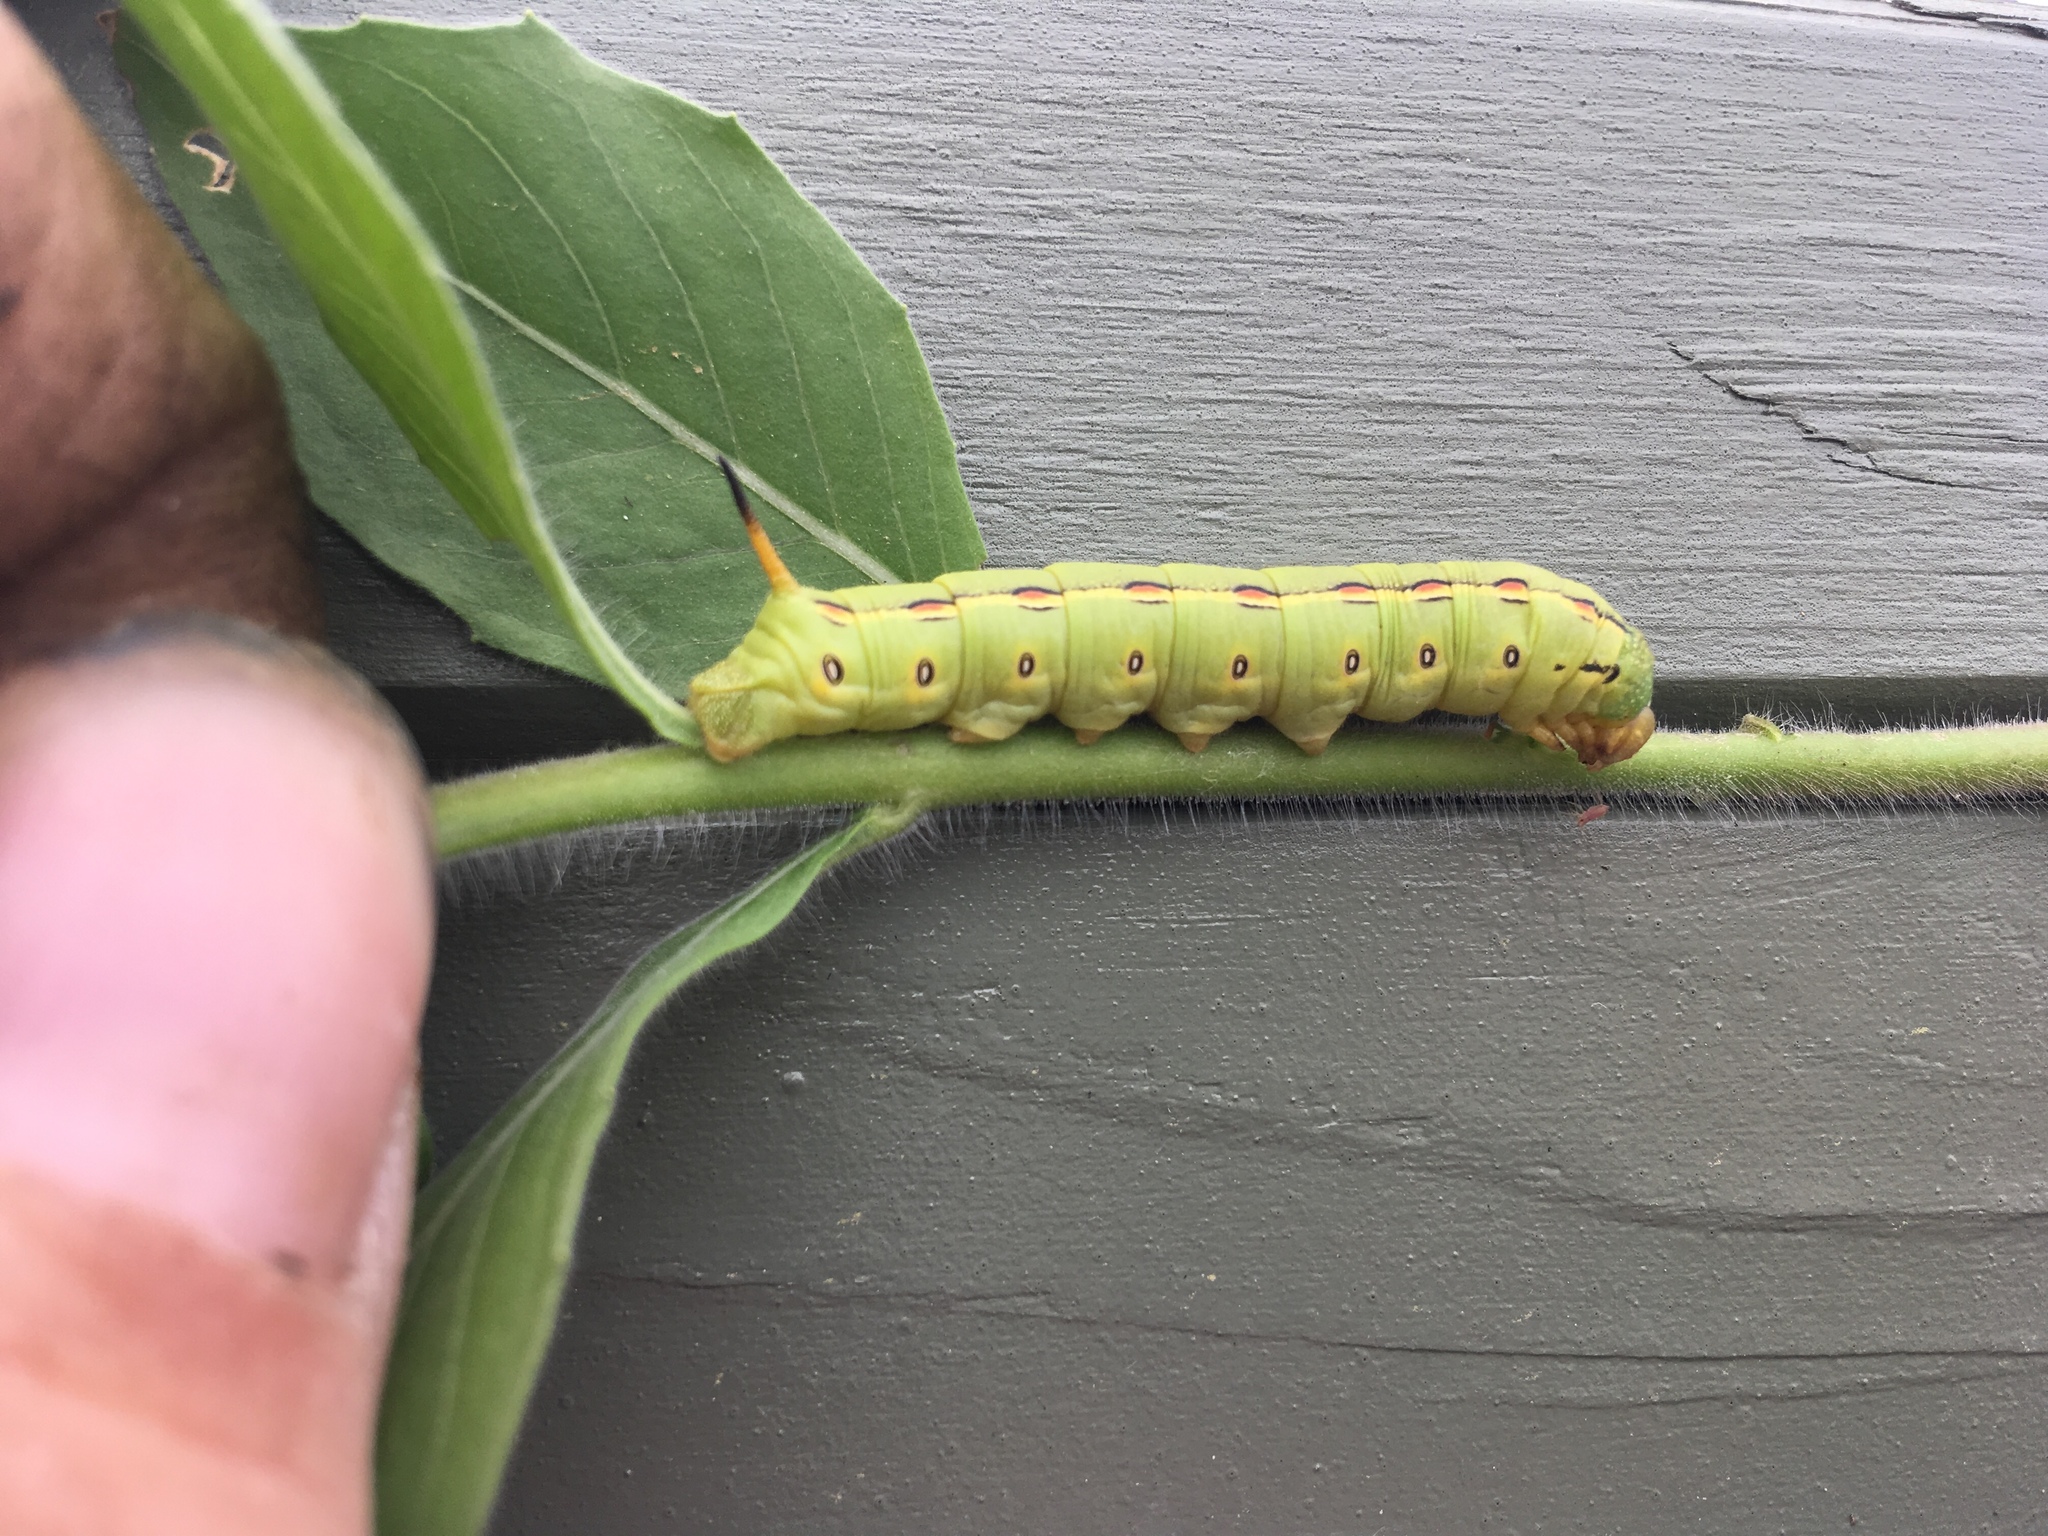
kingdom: Animalia
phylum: Arthropoda
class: Insecta
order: Lepidoptera
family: Sphingidae
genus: Hyles
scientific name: Hyles lineata
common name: White-lined sphinx
